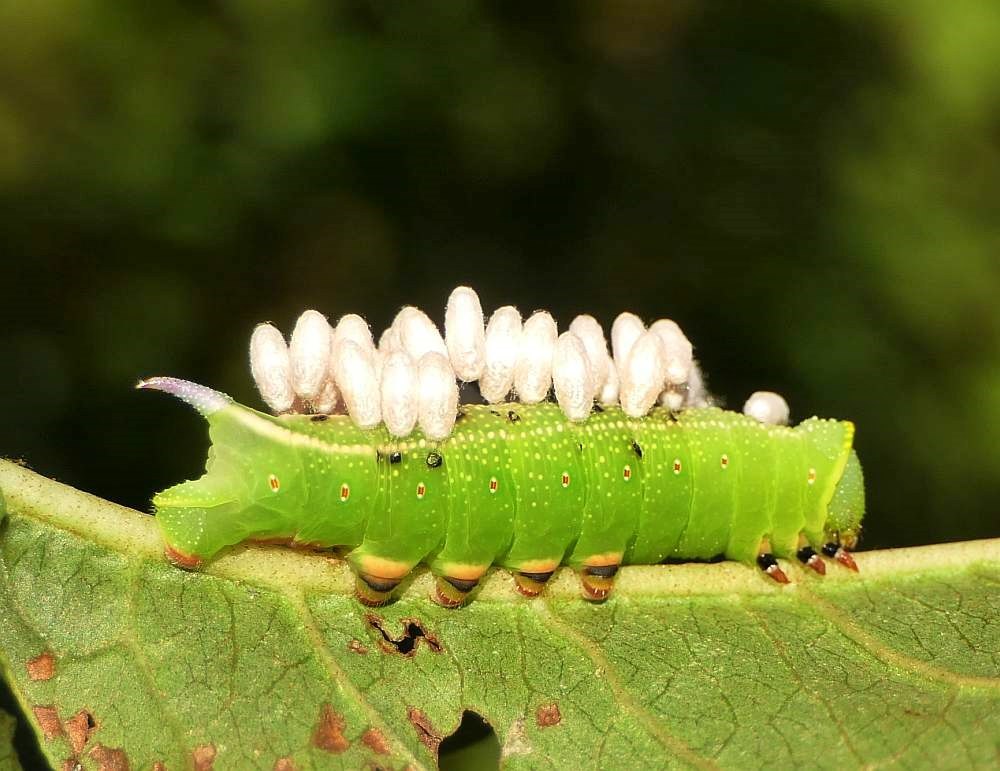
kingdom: Animalia
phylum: Arthropoda
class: Insecta
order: Lepidoptera
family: Sphingidae
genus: Hemaris
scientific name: Hemaris thysbe
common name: Common clear-wing
